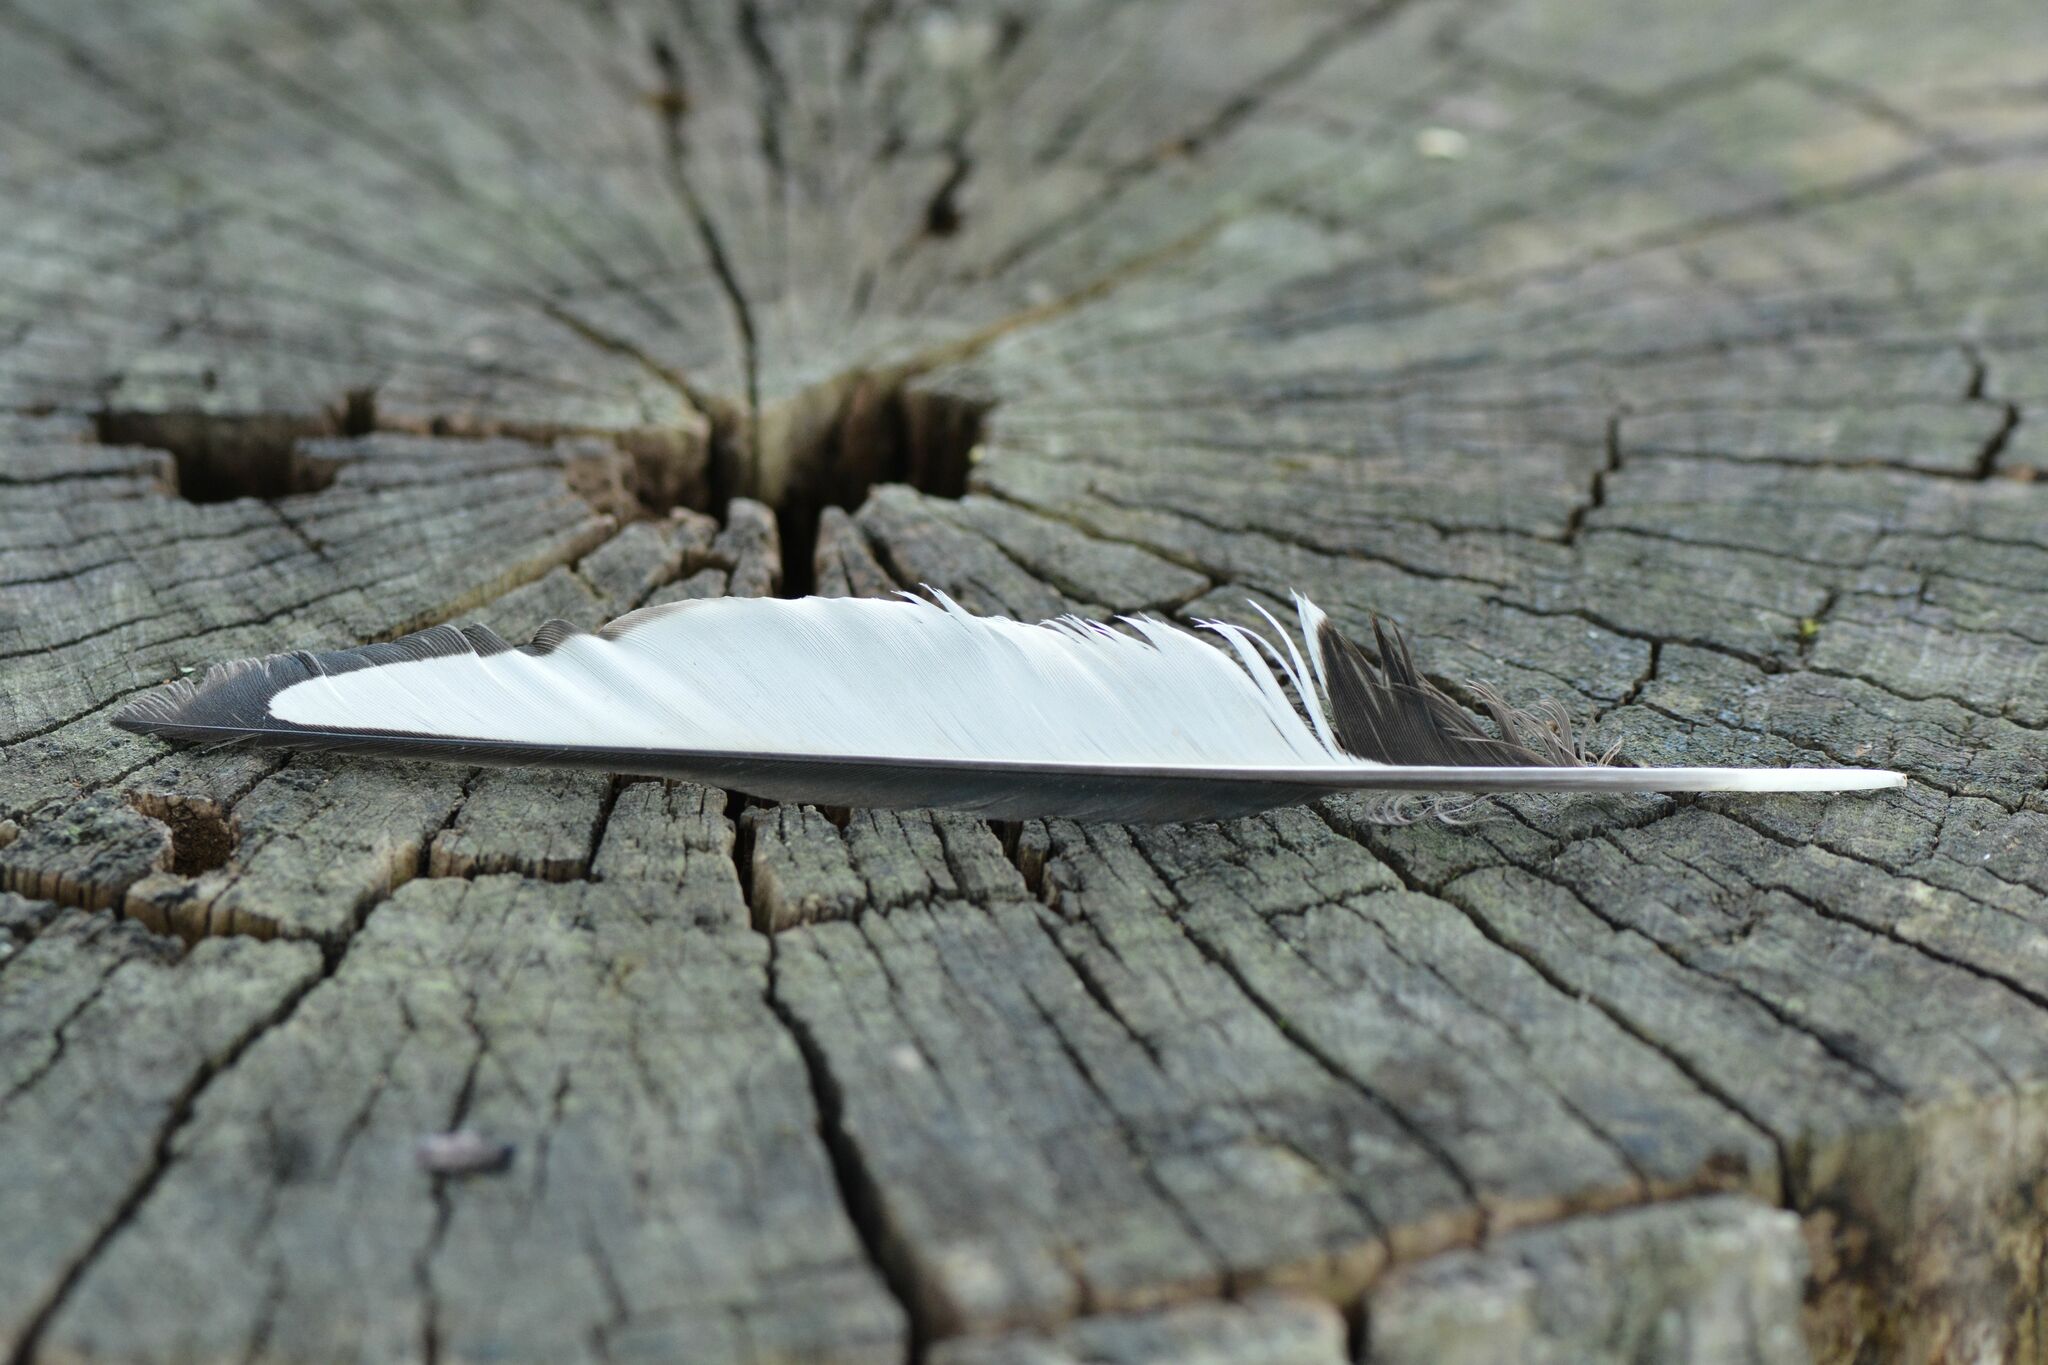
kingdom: Animalia
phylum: Chordata
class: Aves
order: Passeriformes
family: Corvidae
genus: Pica
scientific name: Pica pica
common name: Eurasian magpie
